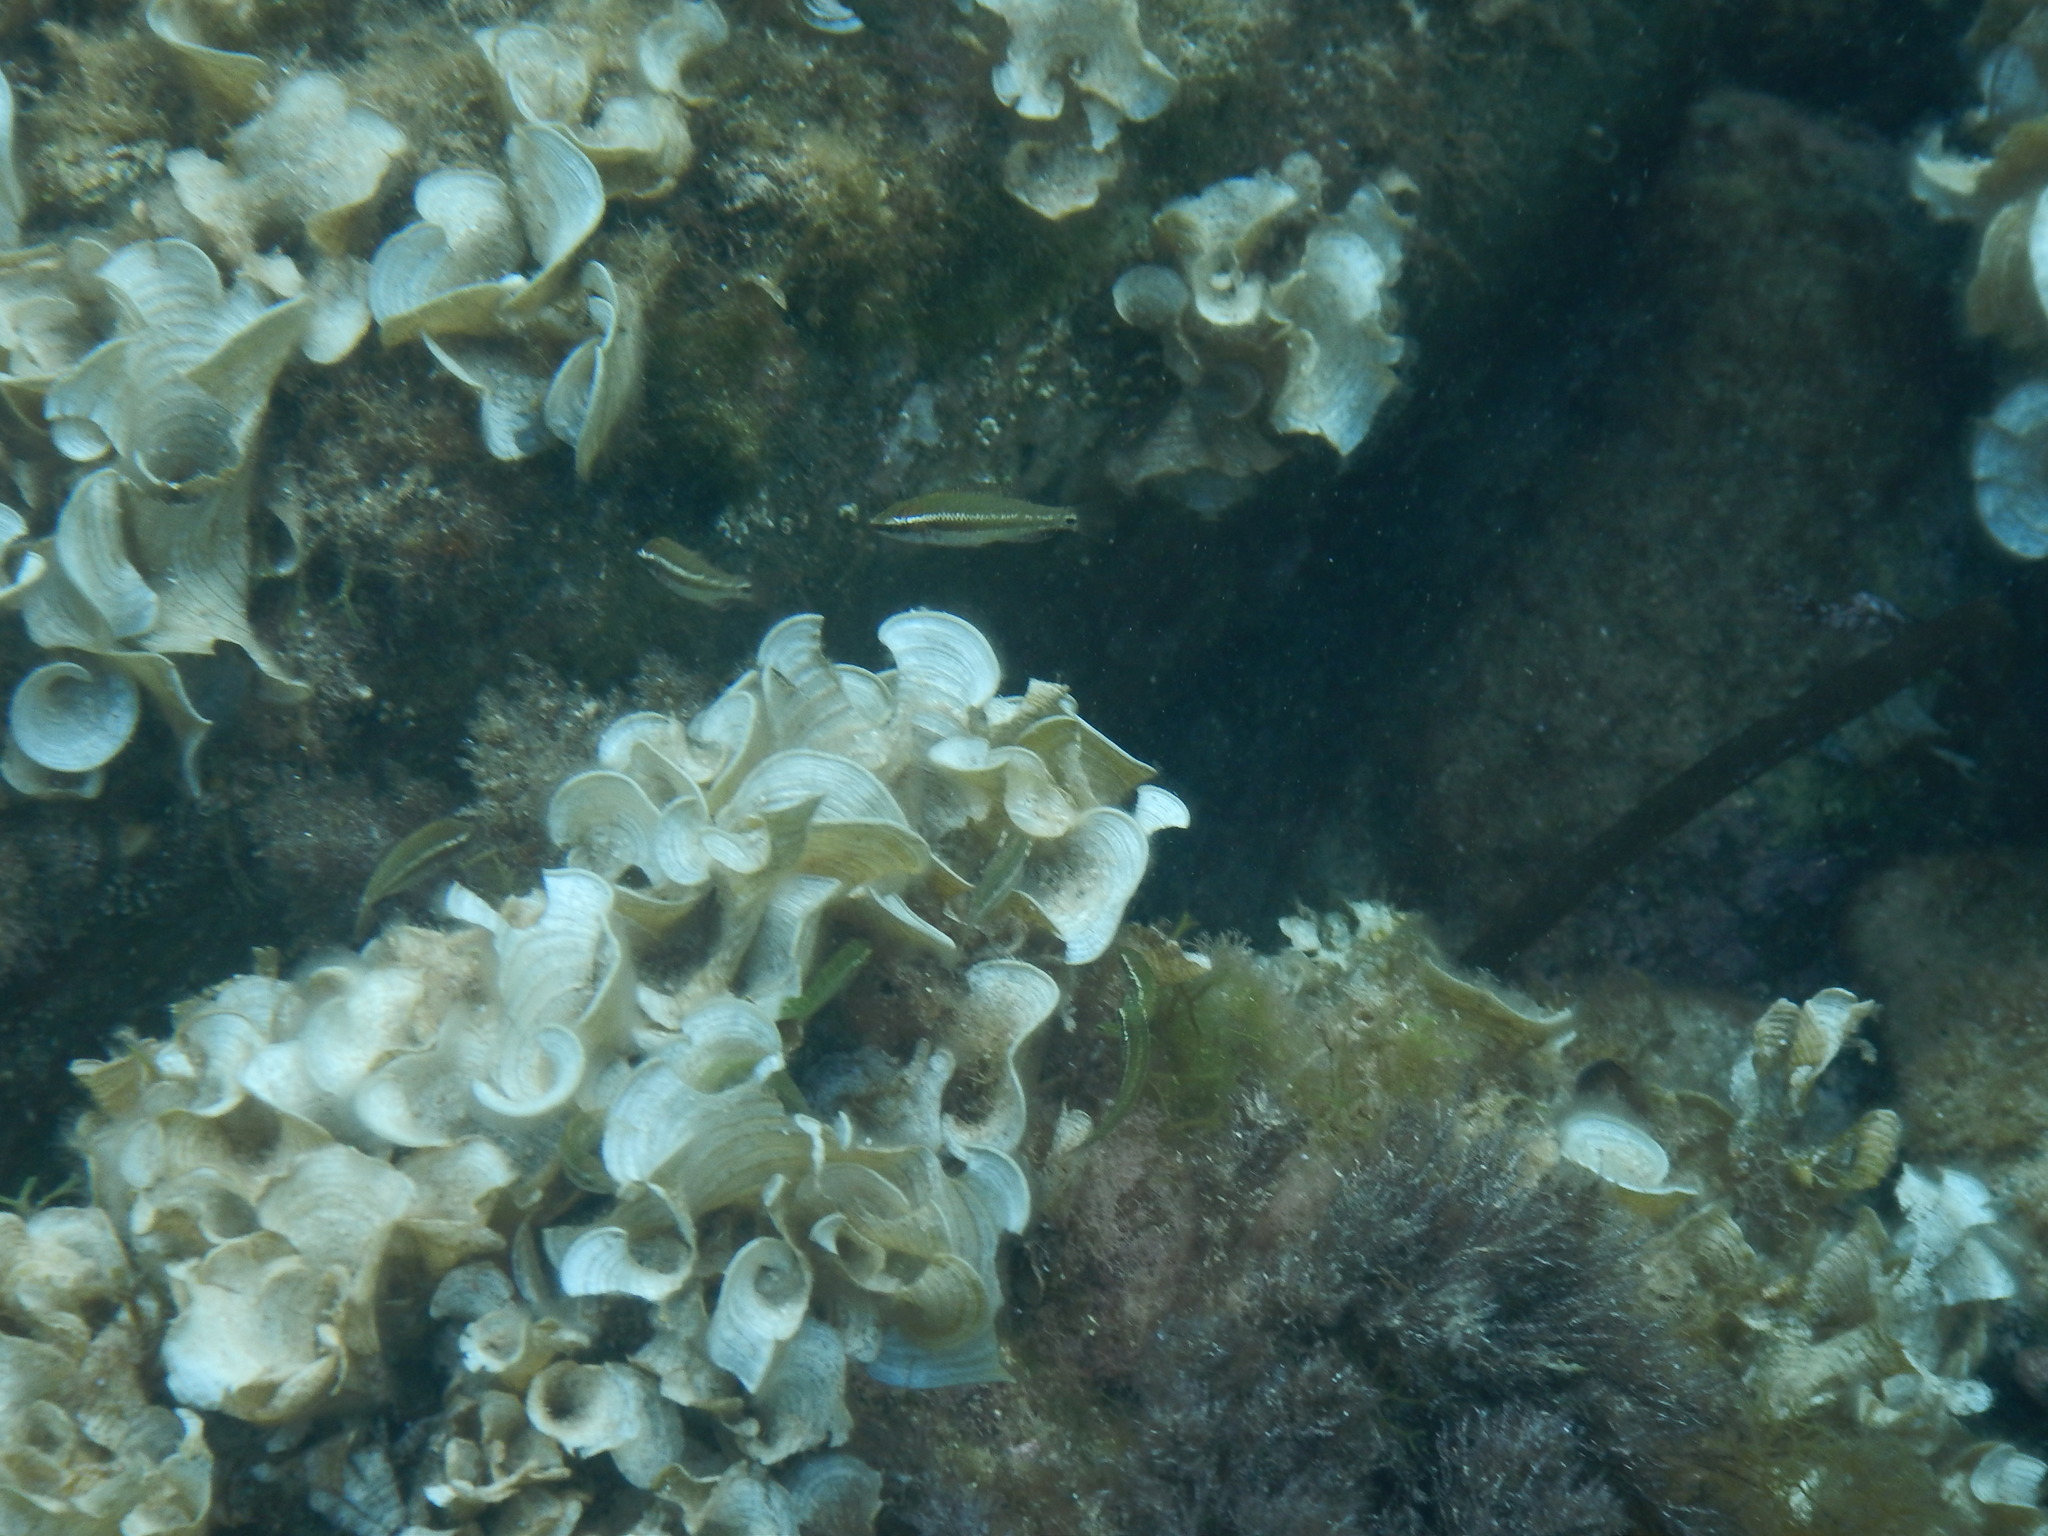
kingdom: Animalia
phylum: Chordata
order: Perciformes
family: Labridae
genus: Symphodus
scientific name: Symphodus ocellatus
